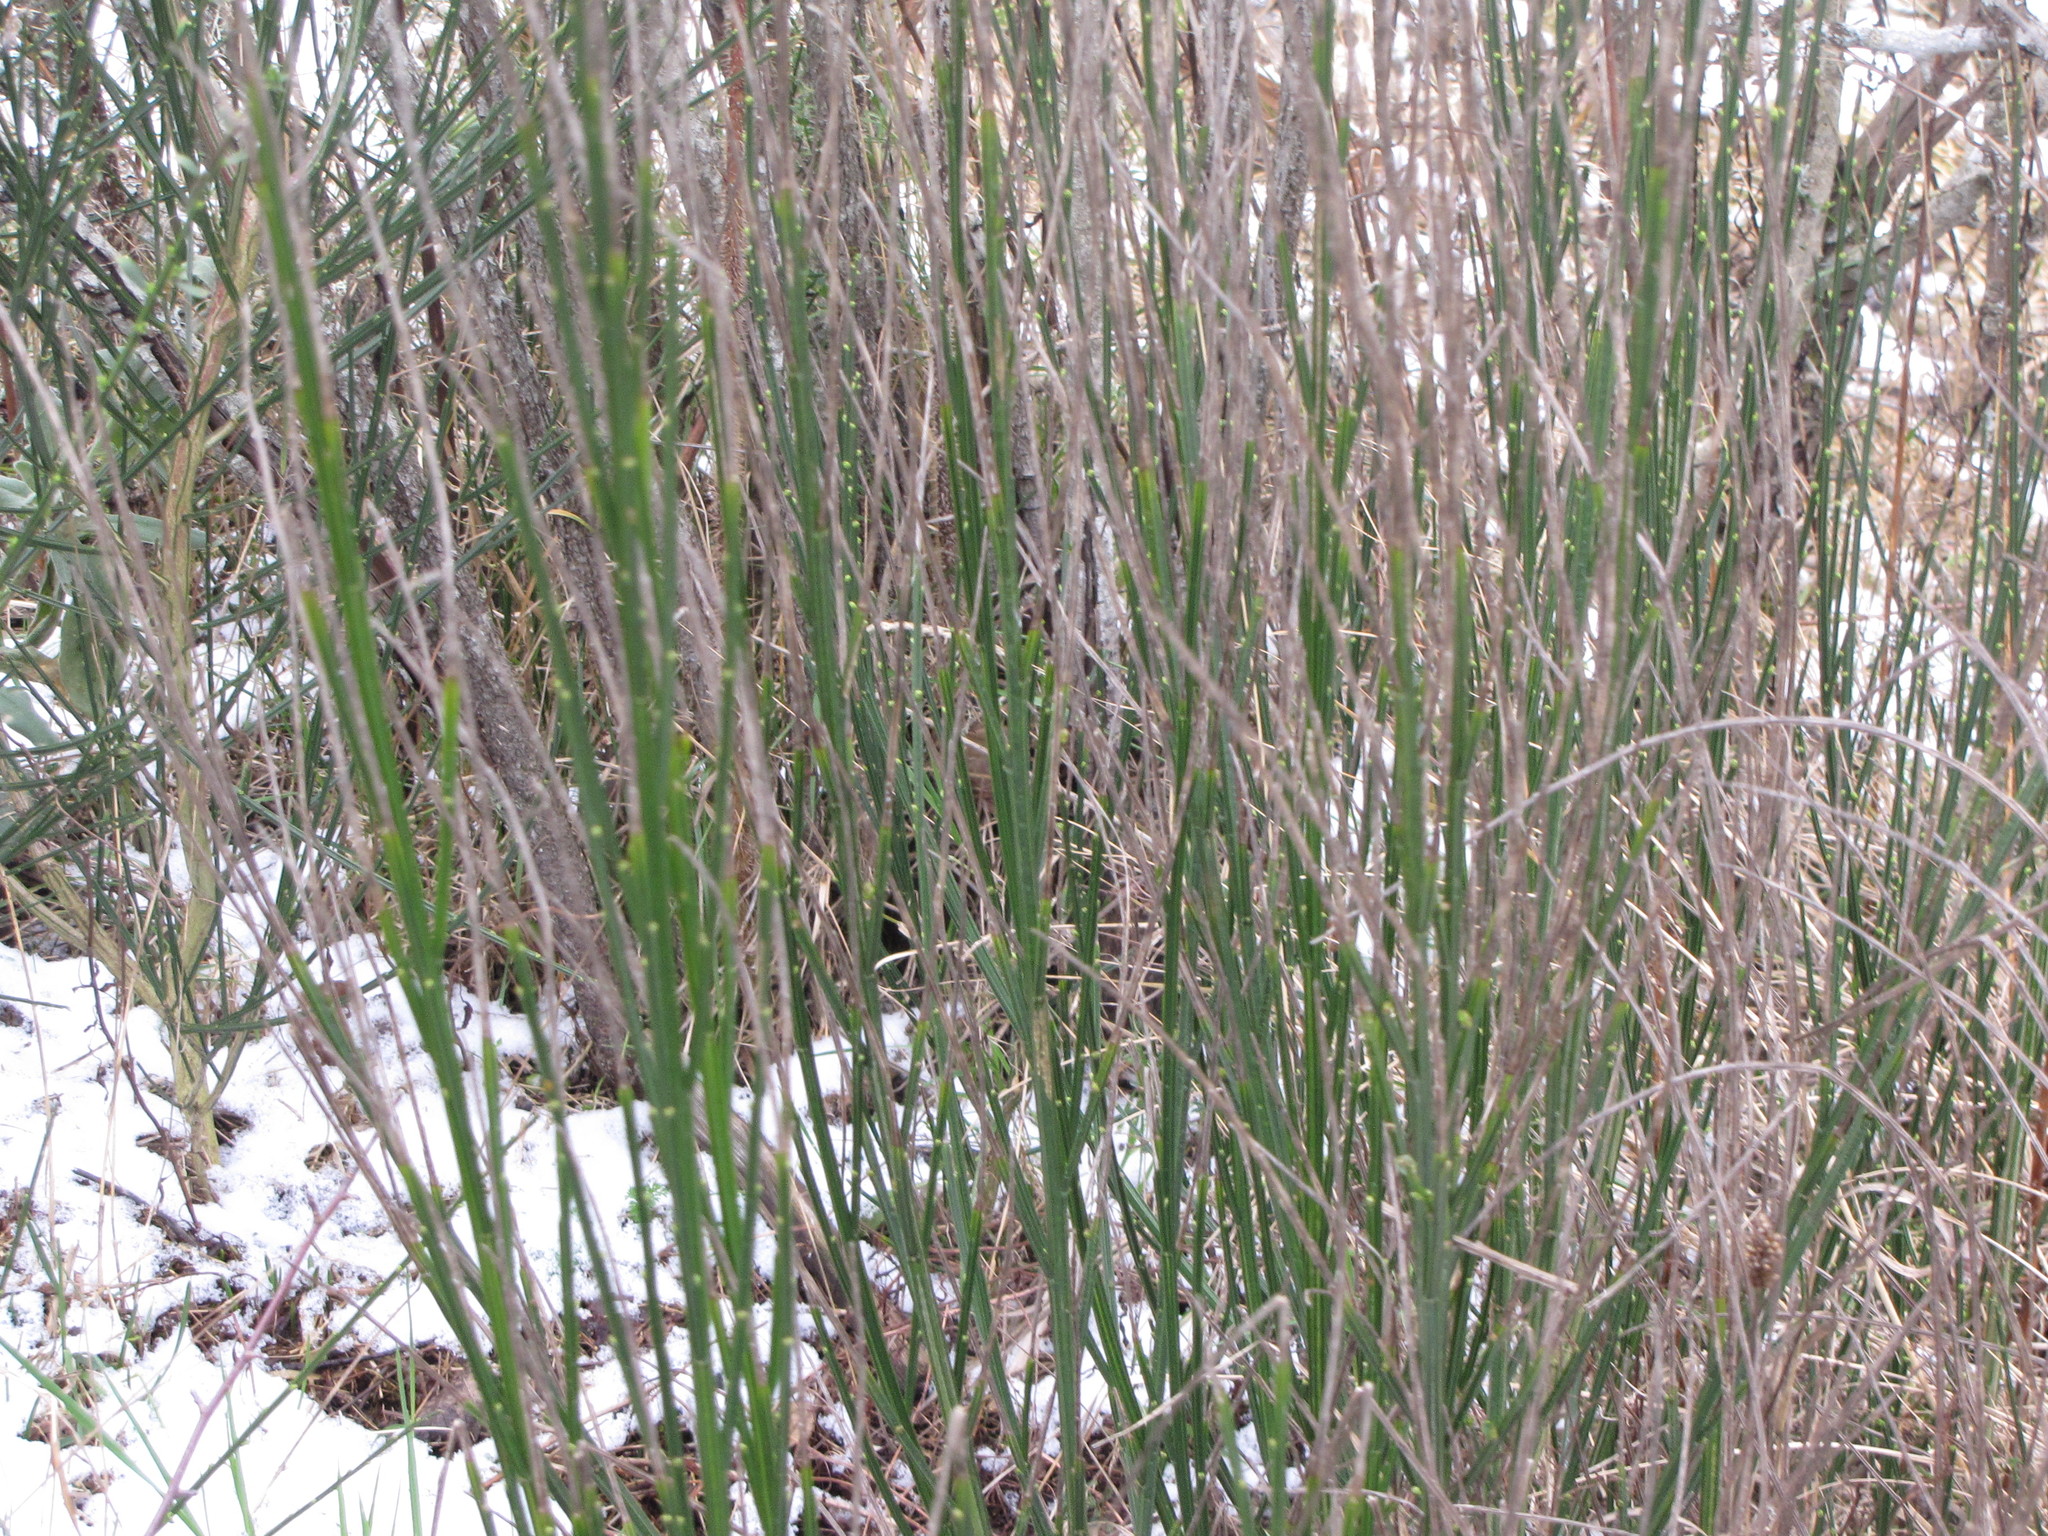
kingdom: Plantae
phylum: Tracheophyta
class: Magnoliopsida
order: Fabales
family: Fabaceae
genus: Cytisus
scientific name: Cytisus scoparius
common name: Scotch broom
